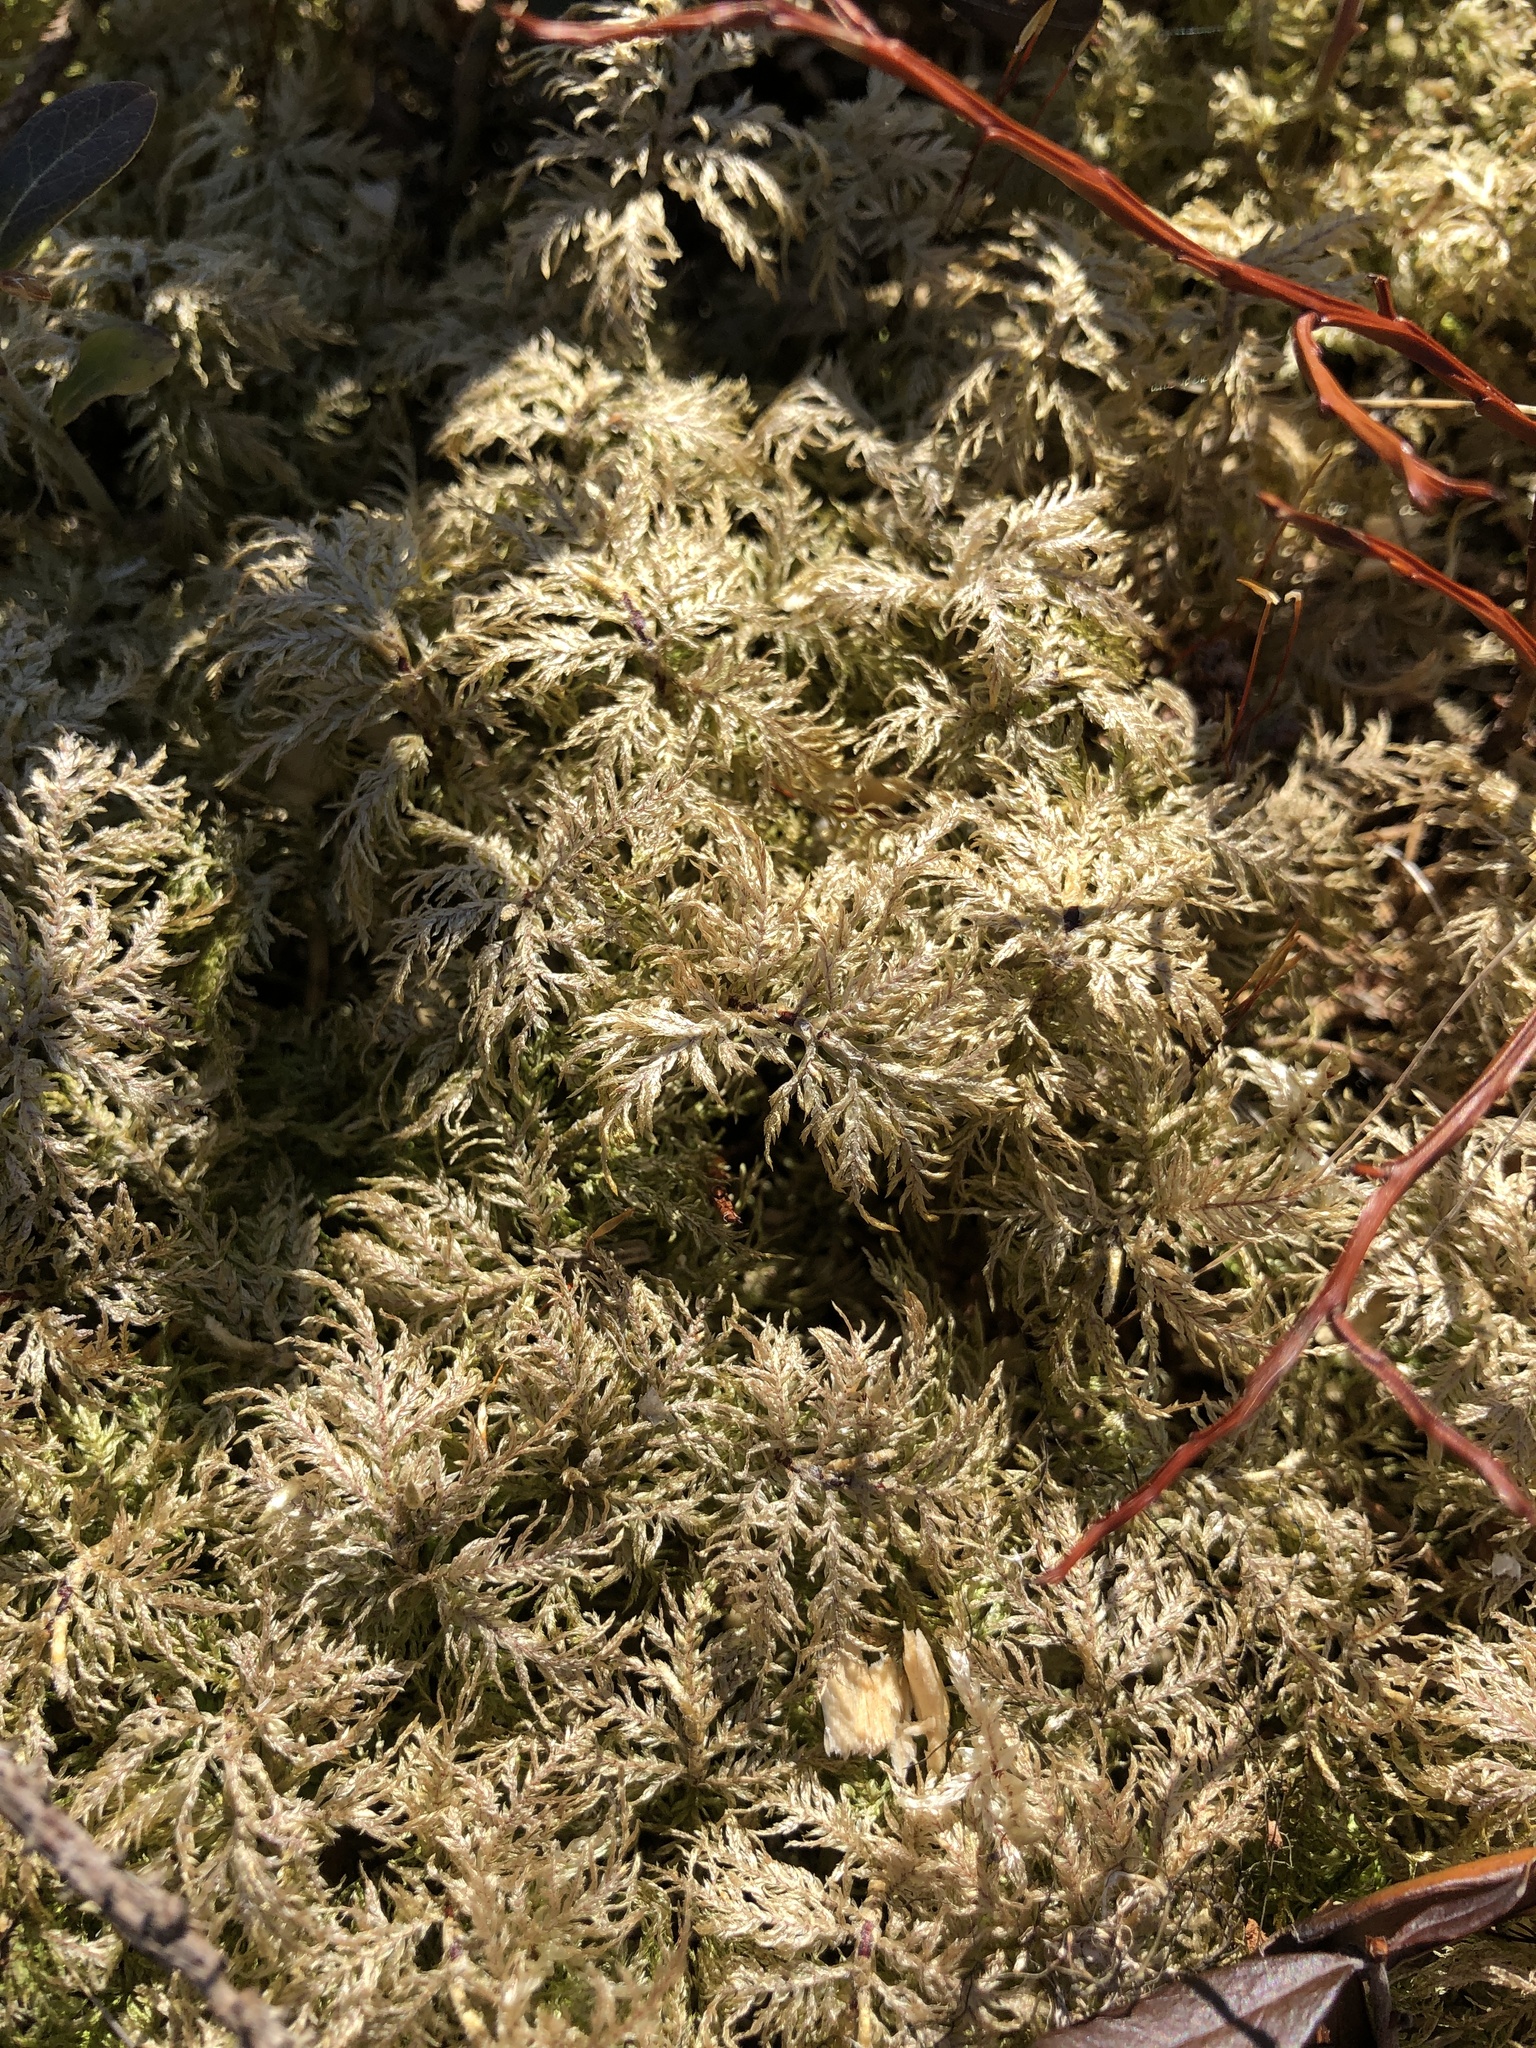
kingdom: Plantae
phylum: Bryophyta
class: Bryopsida
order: Hypnales
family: Hylocomiaceae
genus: Hylocomium
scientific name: Hylocomium splendens
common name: Stairstep moss
